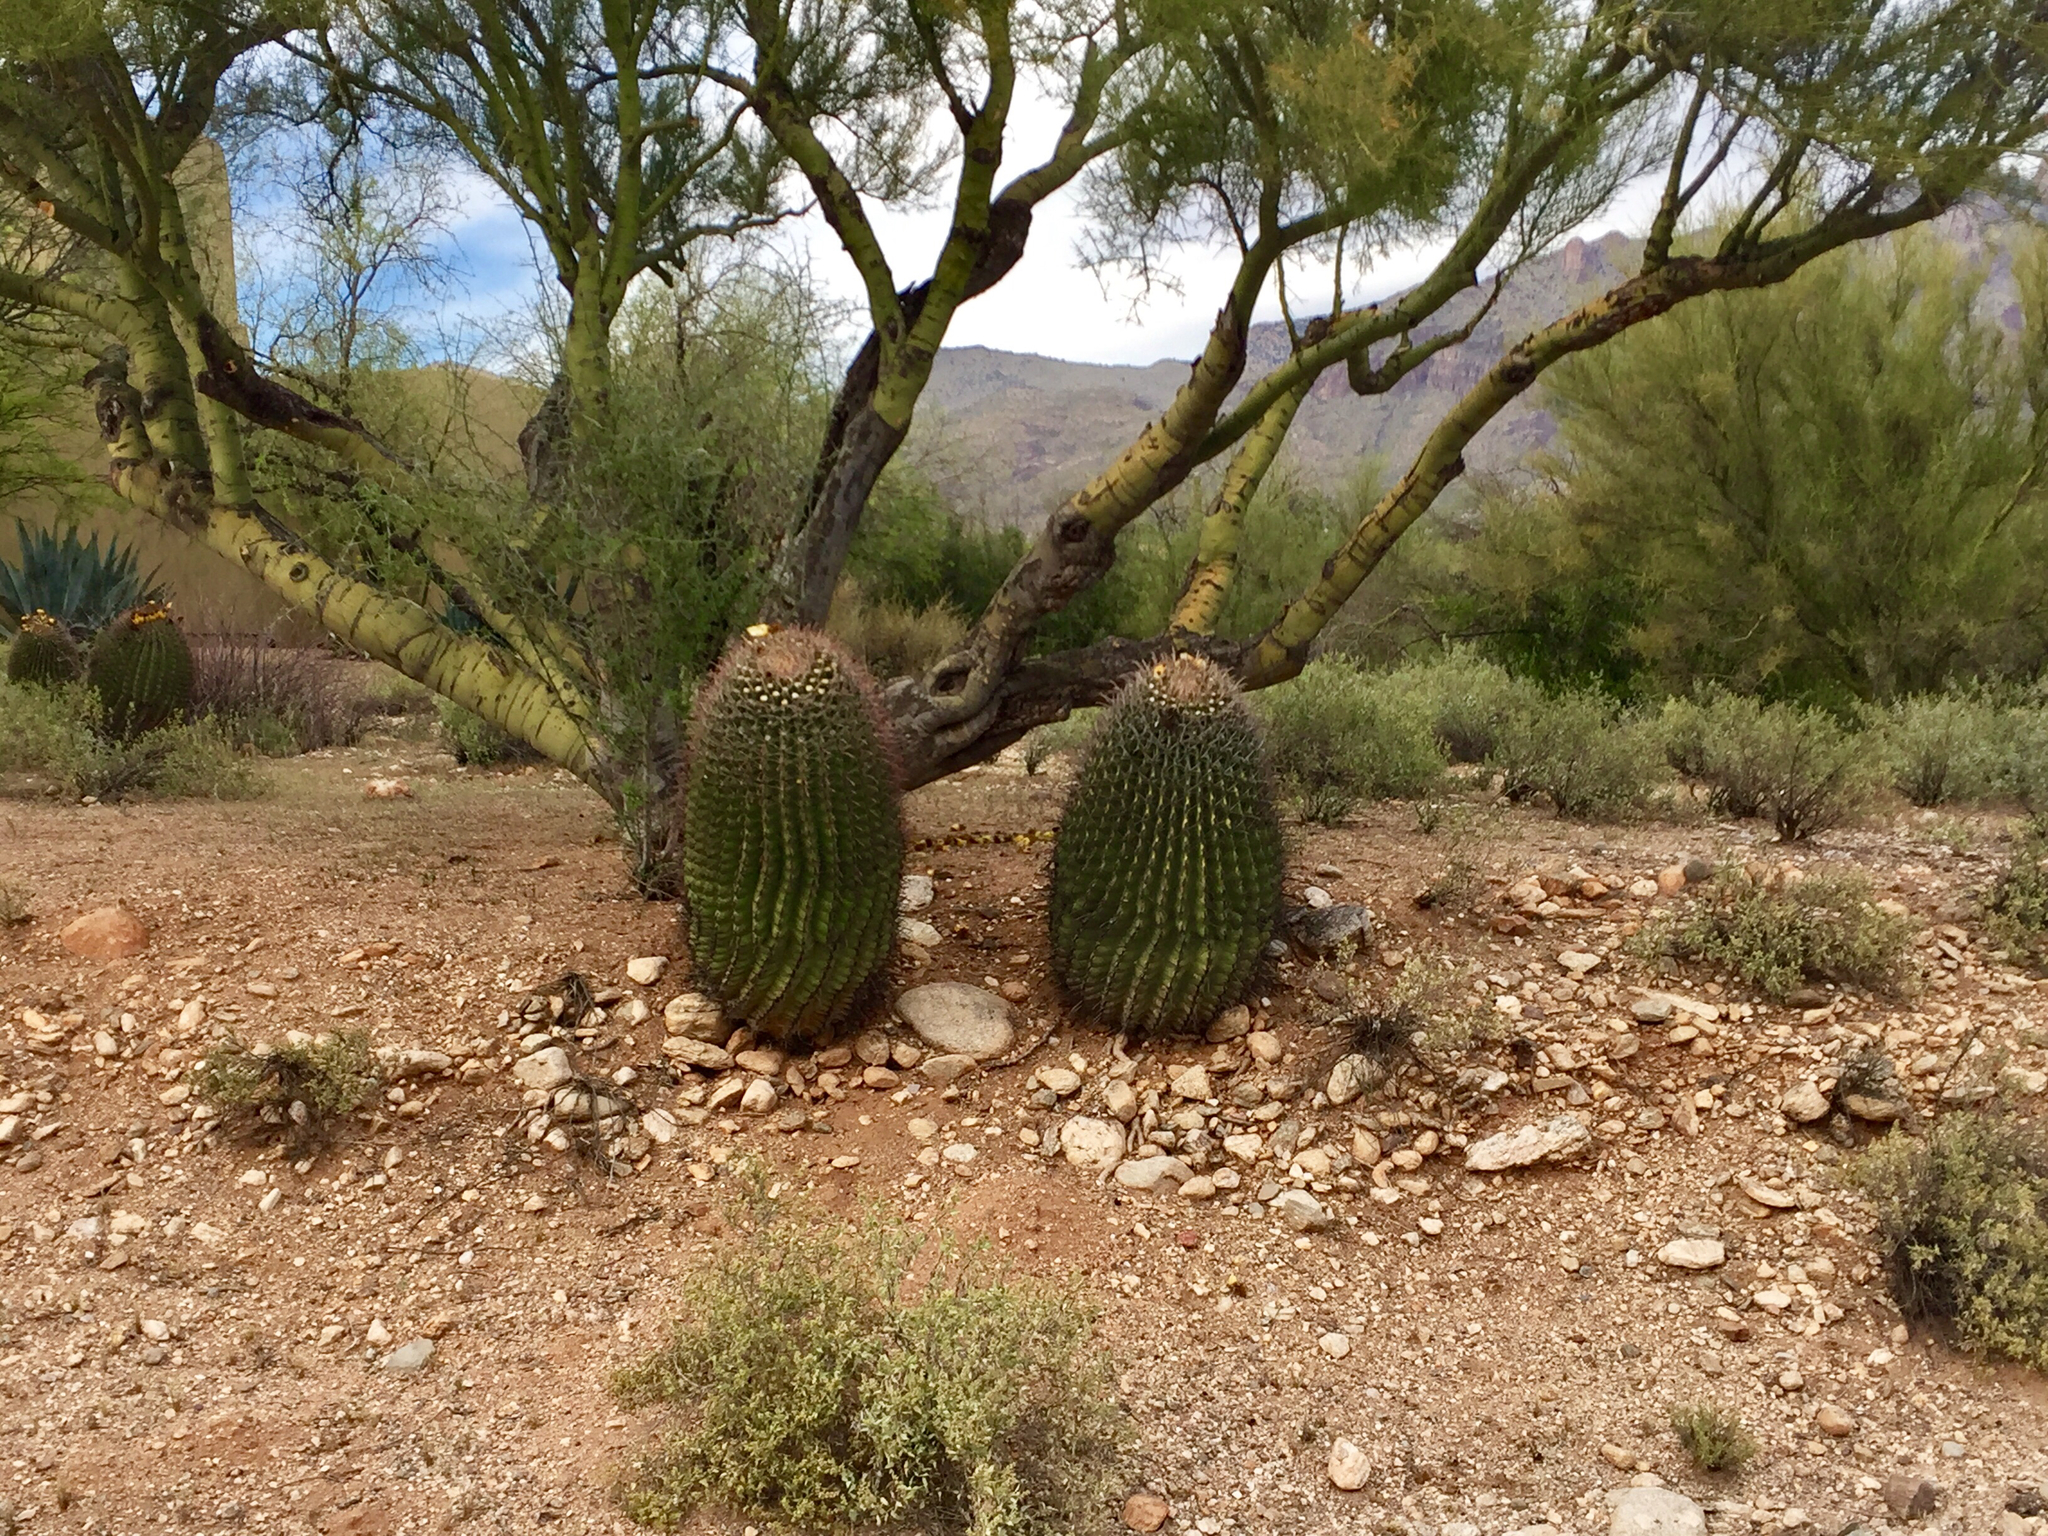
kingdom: Plantae
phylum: Tracheophyta
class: Magnoliopsida
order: Caryophyllales
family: Cactaceae
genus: Ferocactus
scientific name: Ferocactus wislizeni
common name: Candy barrel cactus
